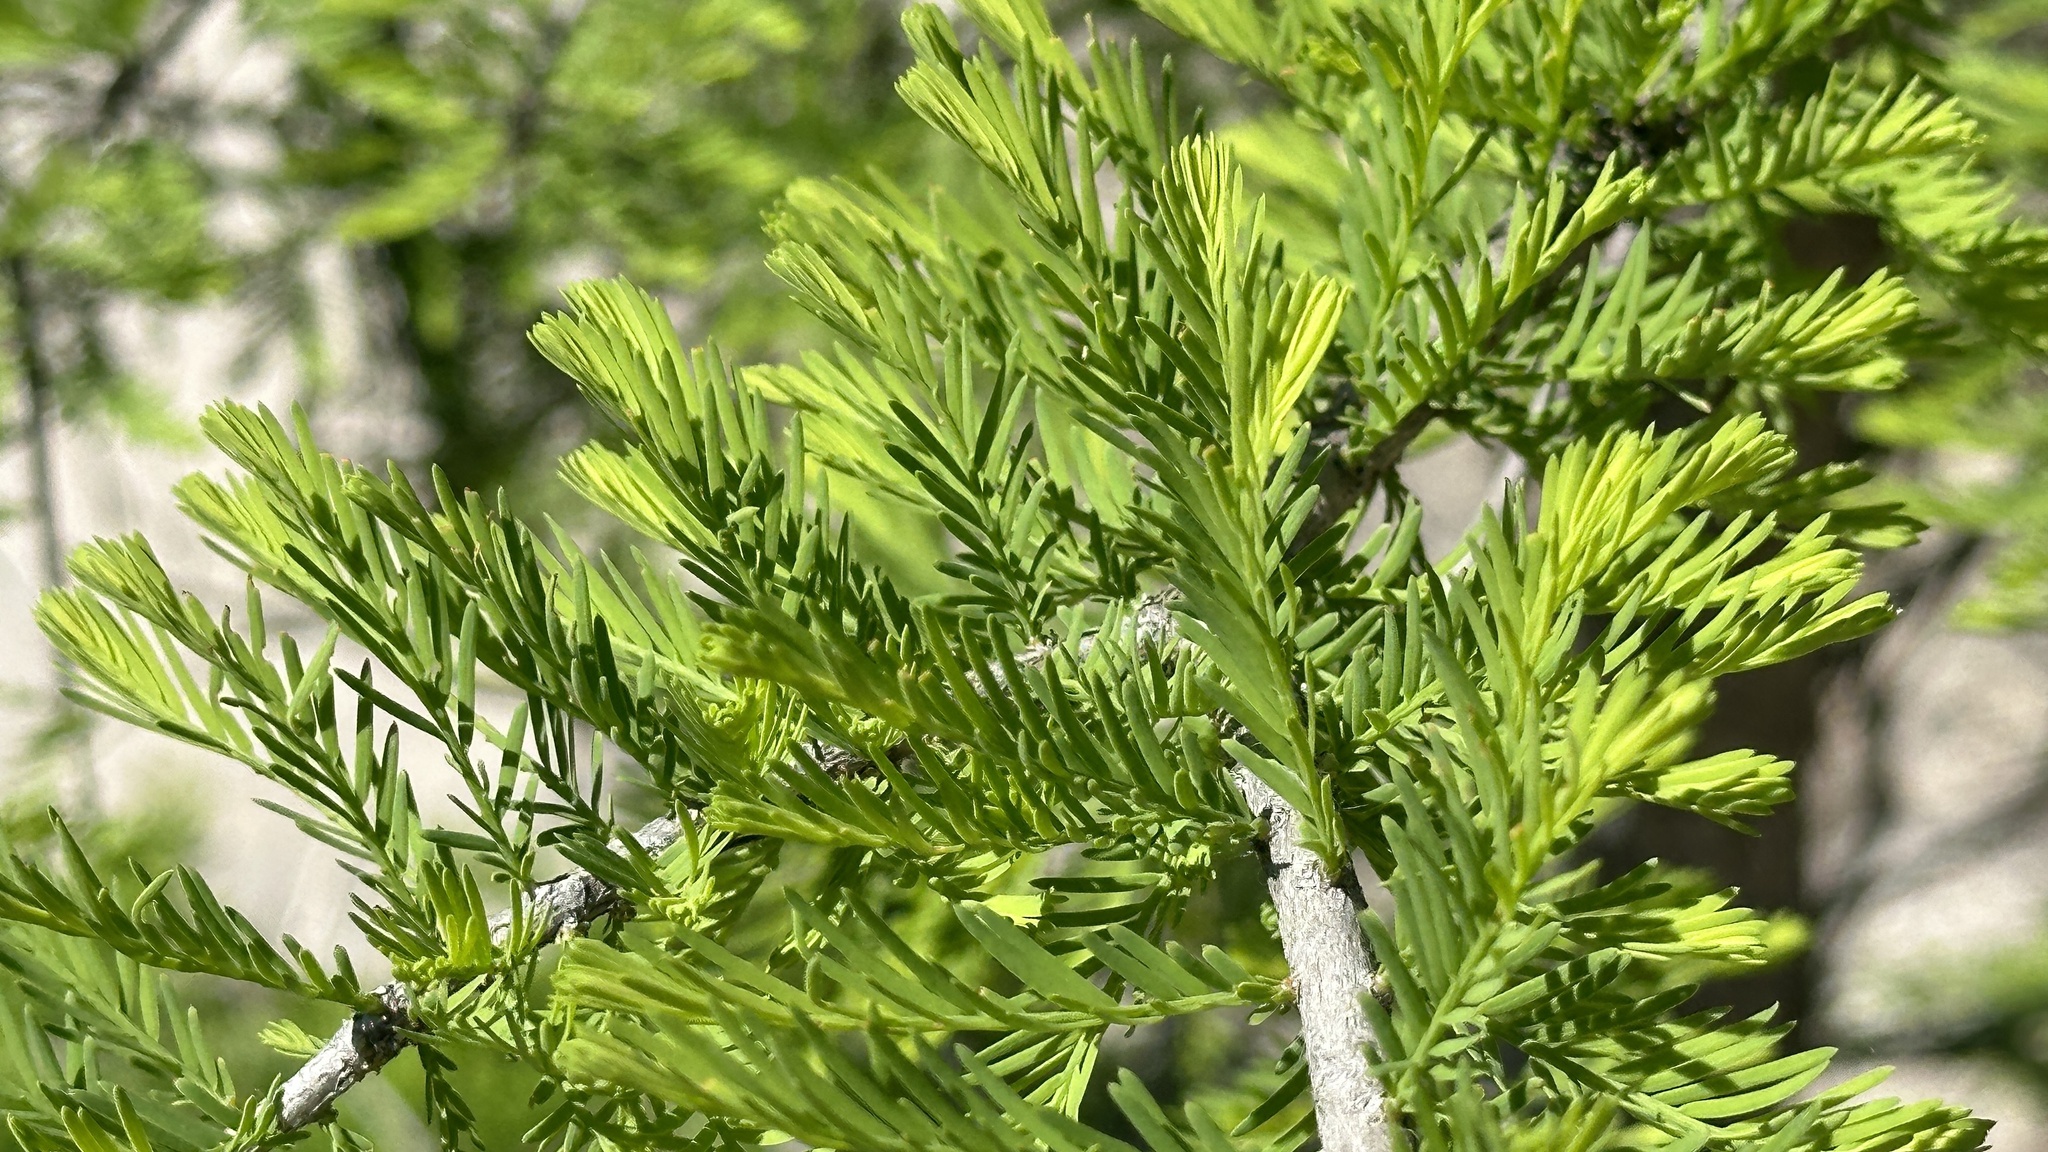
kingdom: Plantae
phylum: Tracheophyta
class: Pinopsida
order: Pinales
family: Cupressaceae
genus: Taxodium
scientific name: Taxodium distichum
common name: Bald cypress
